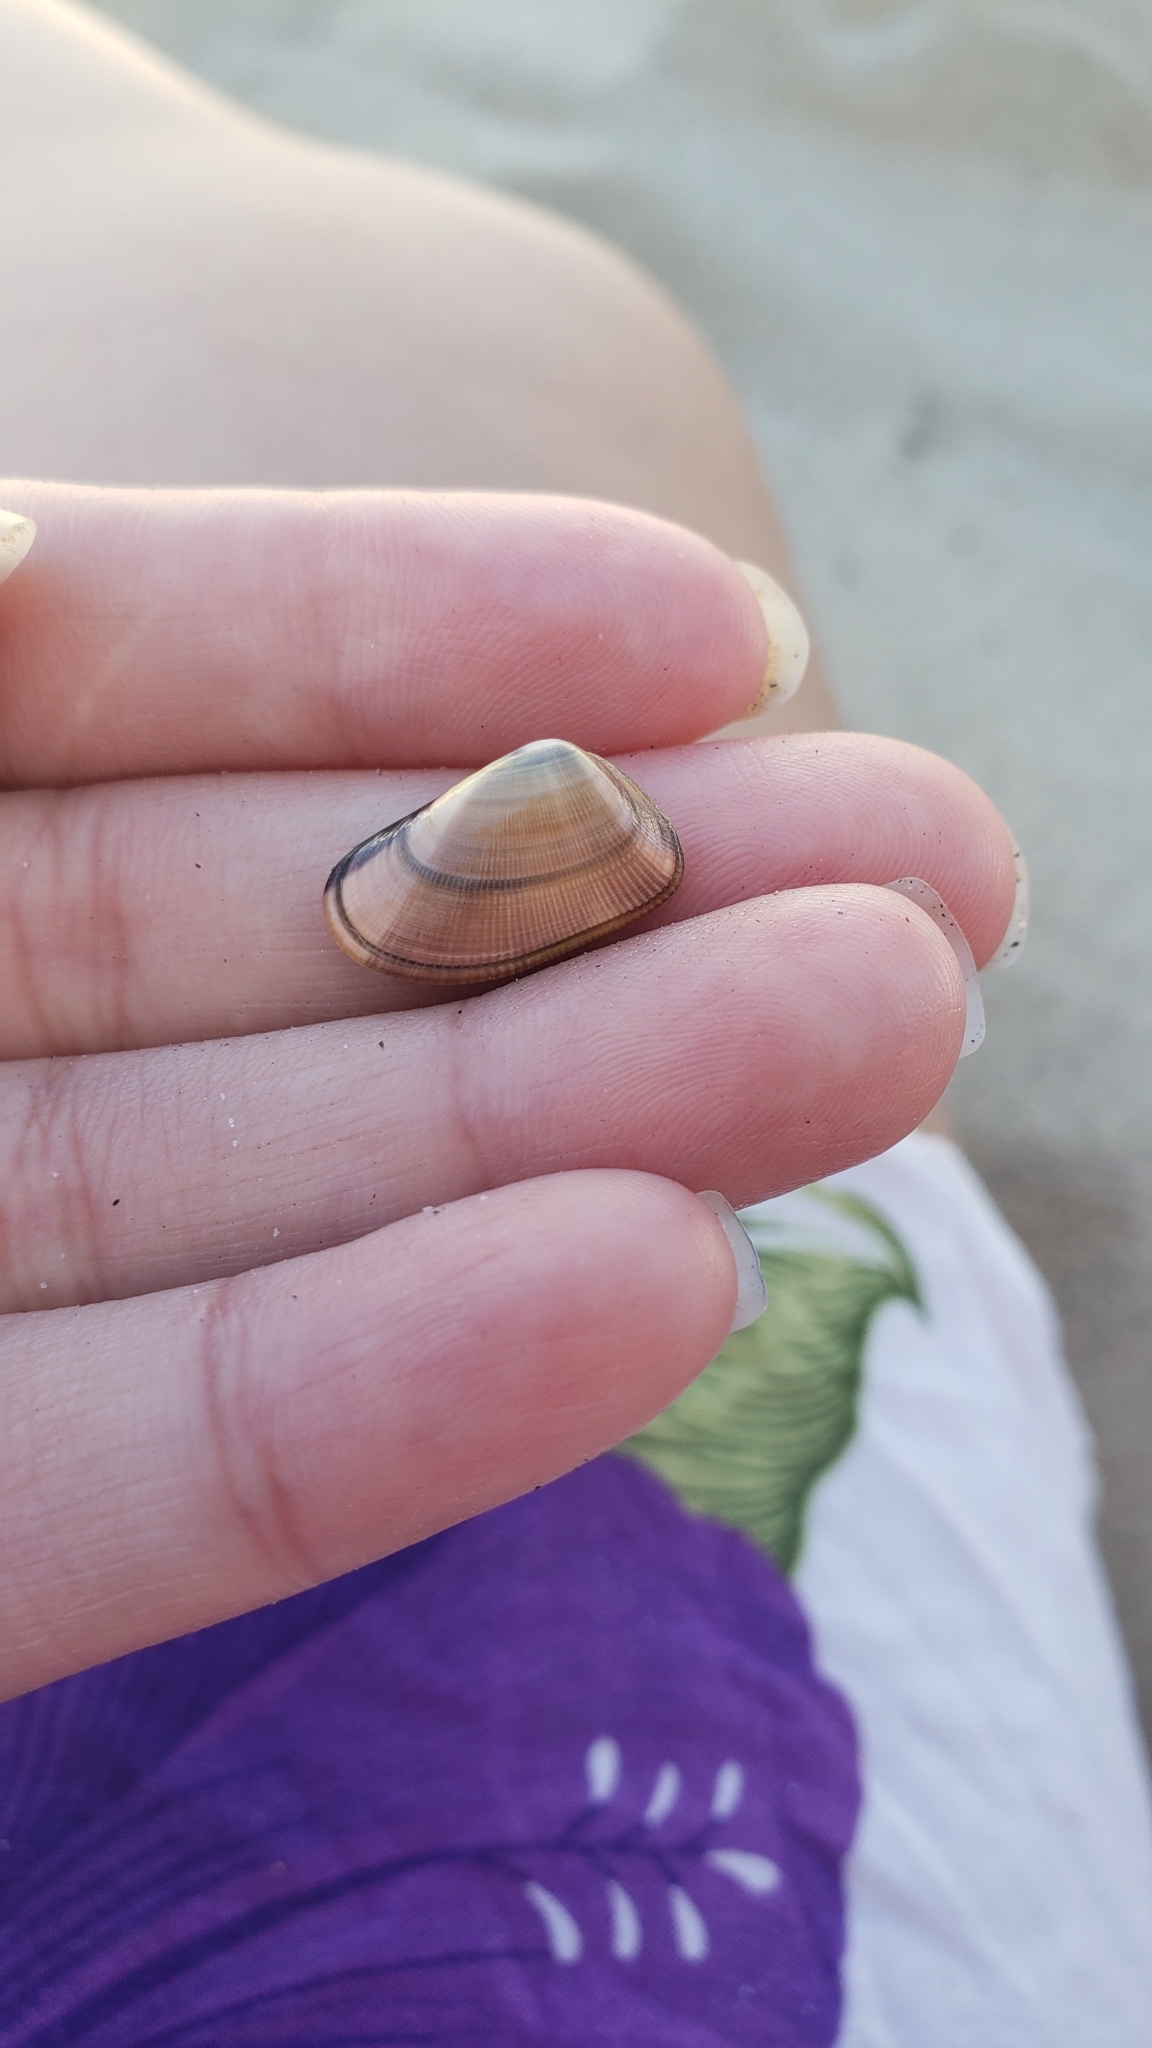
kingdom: Animalia
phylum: Mollusca
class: Bivalvia
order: Cardiida
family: Donacidae
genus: Donax
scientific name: Donax gouldii
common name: Gould beanclam
